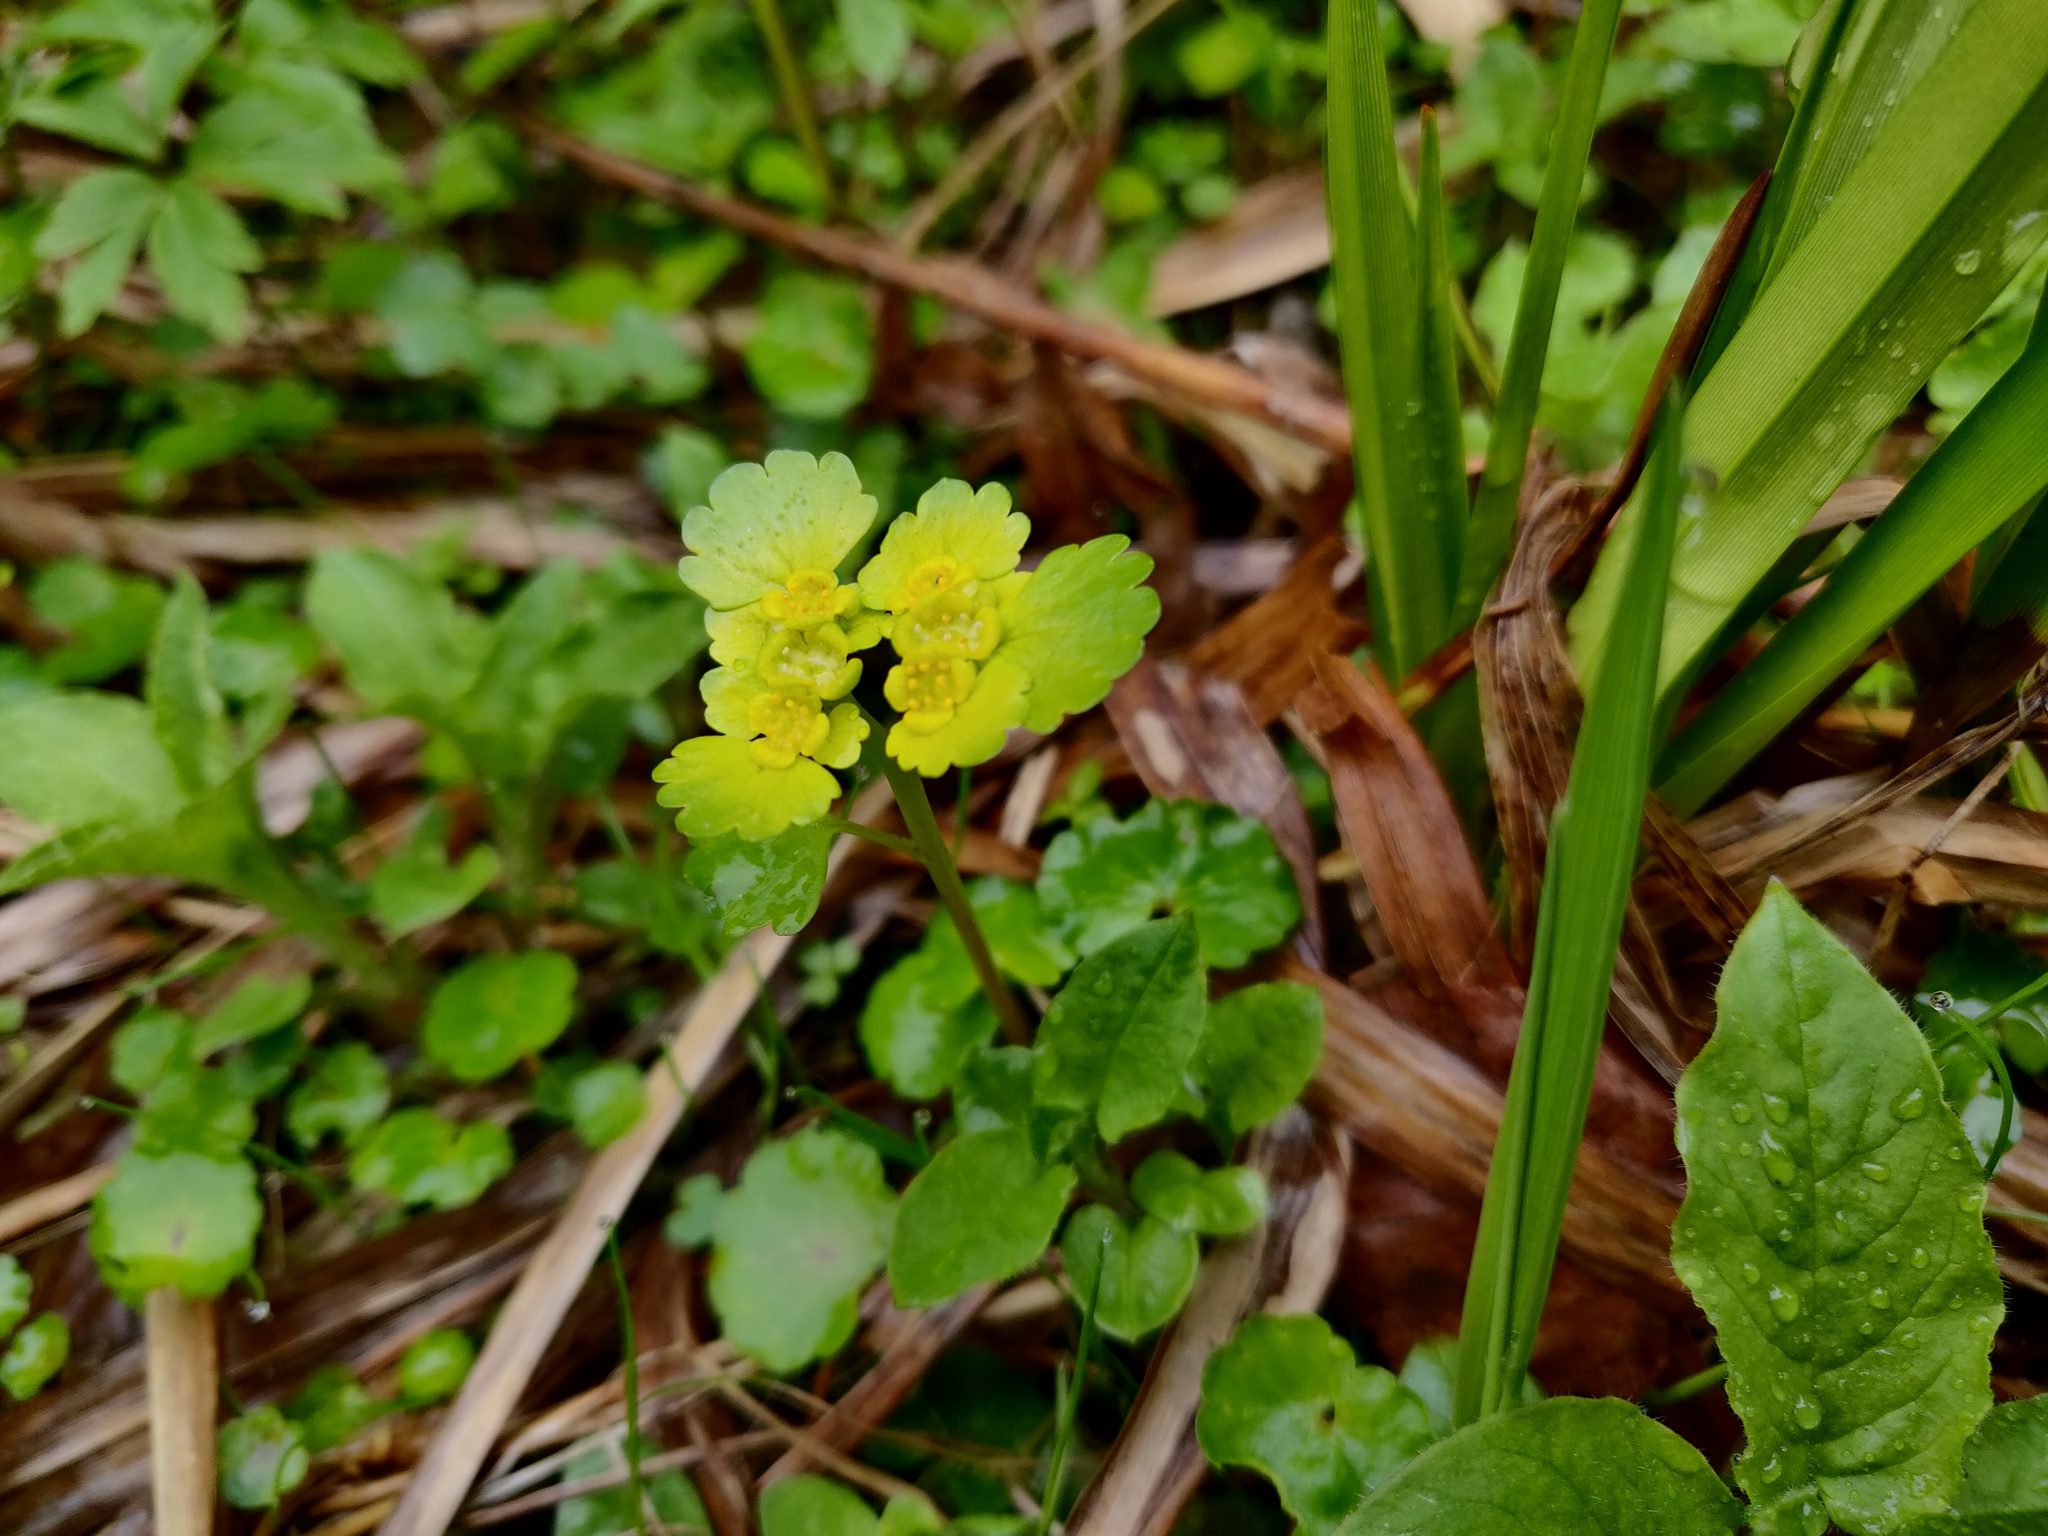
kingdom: Plantae
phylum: Tracheophyta
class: Magnoliopsida
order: Saxifragales
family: Saxifragaceae
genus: Chrysosplenium
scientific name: Chrysosplenium alternifolium
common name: Alternate-leaved golden-saxifrage
